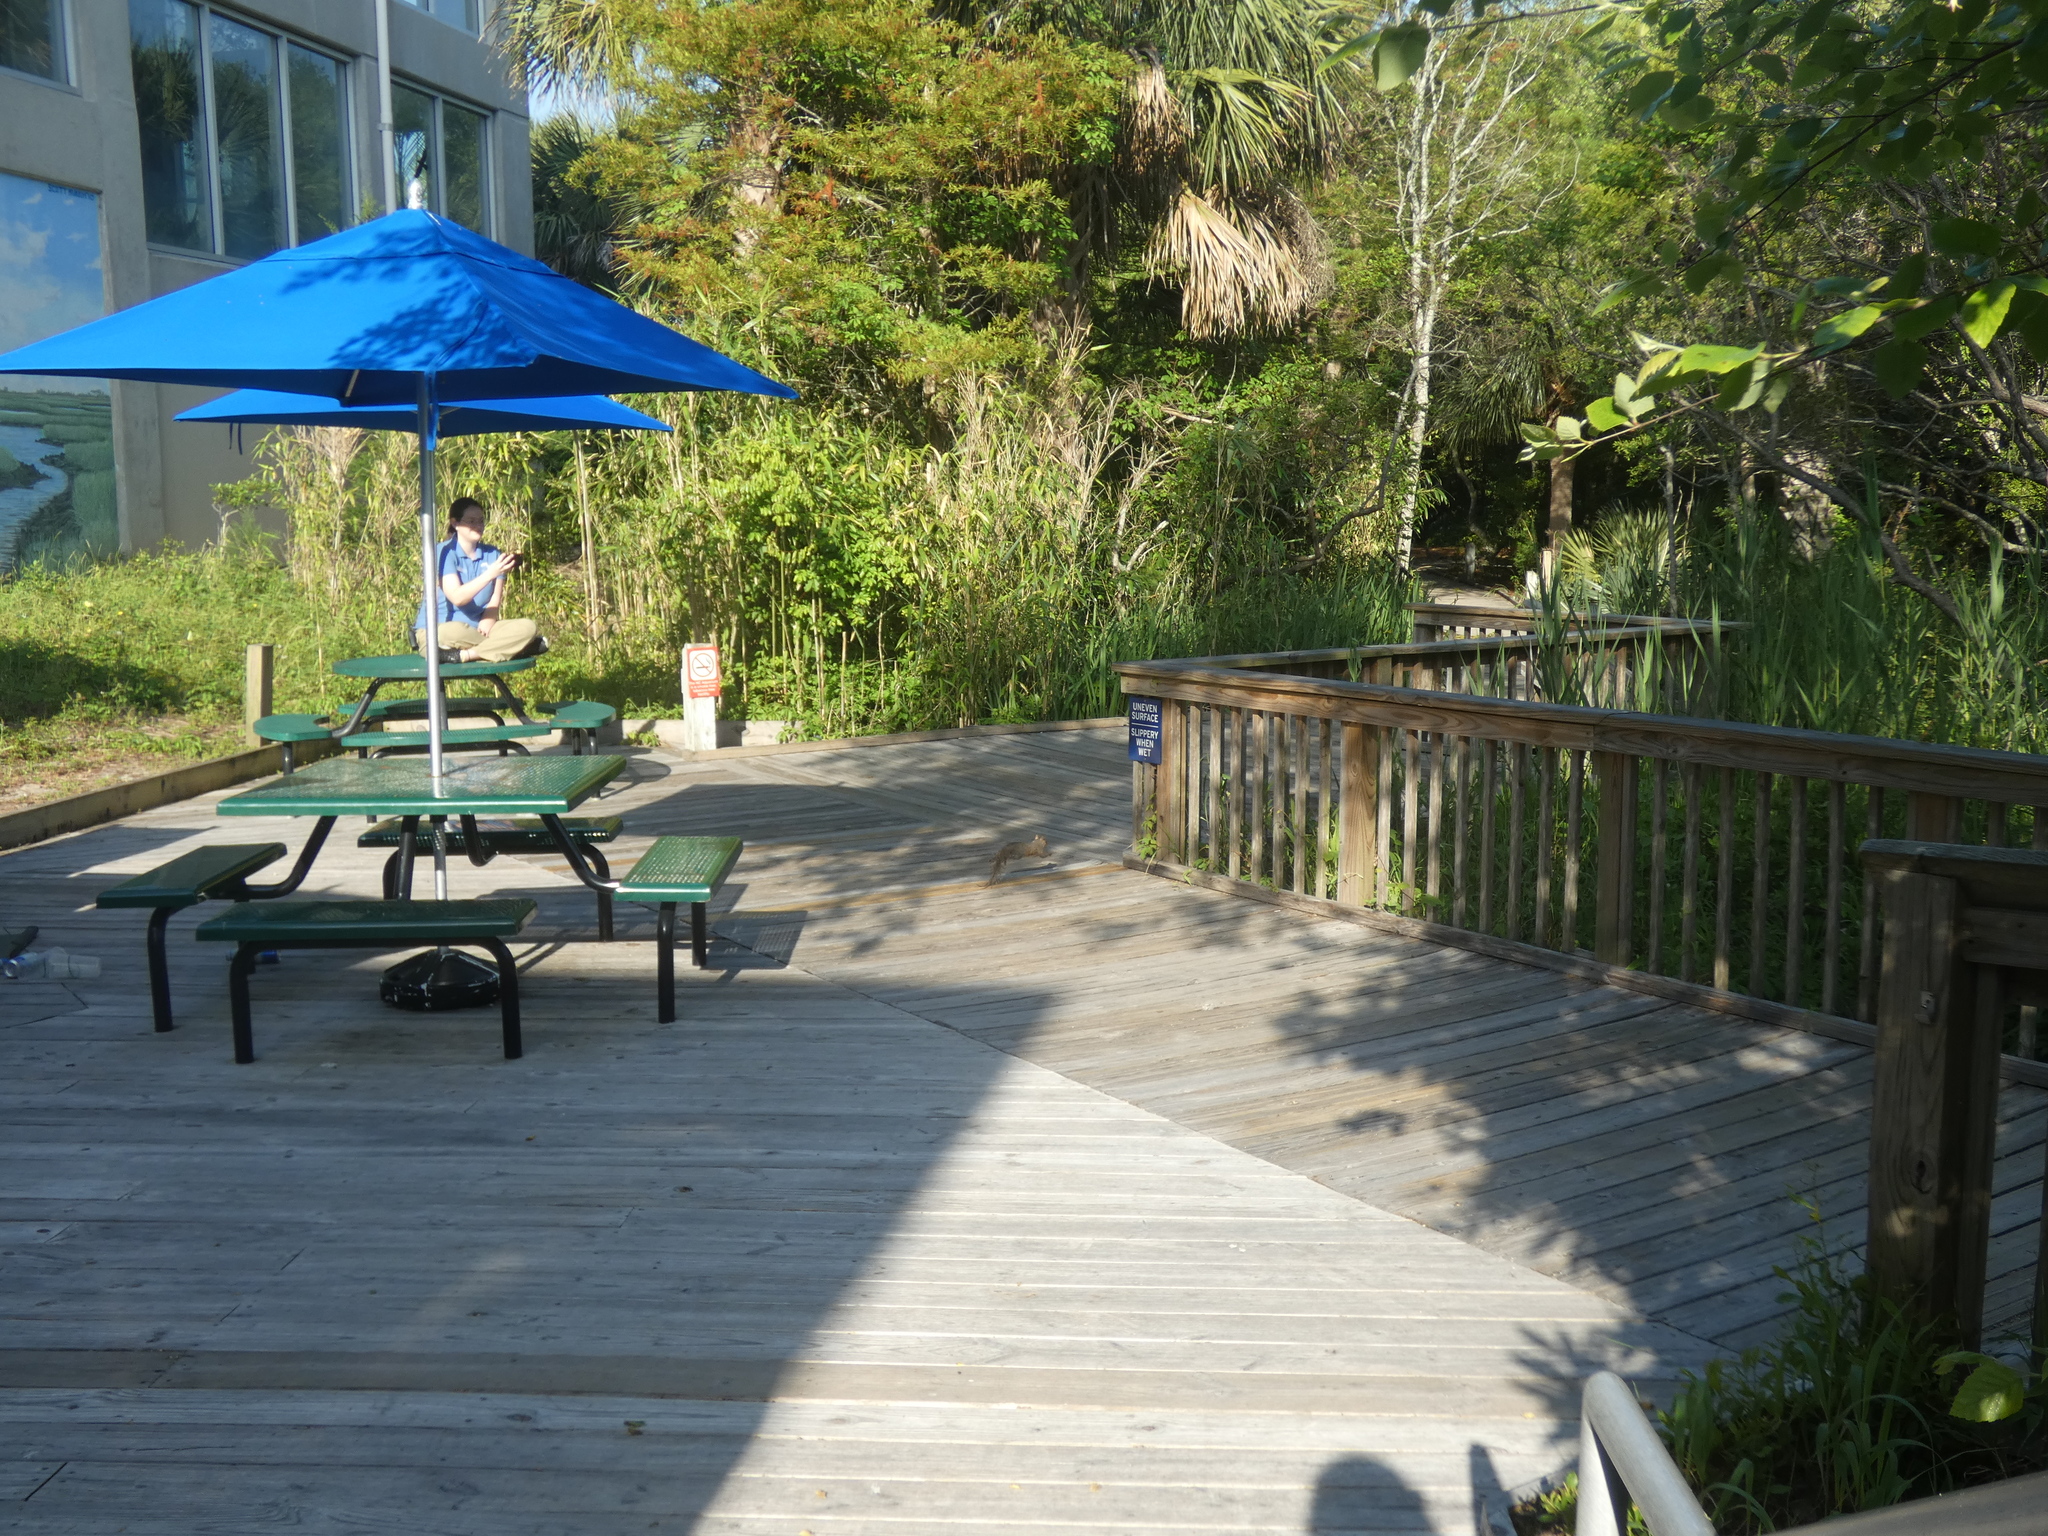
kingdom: Animalia
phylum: Chordata
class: Mammalia
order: Rodentia
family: Sciuridae
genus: Sciurus
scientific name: Sciurus carolinensis
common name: Eastern gray squirrel
